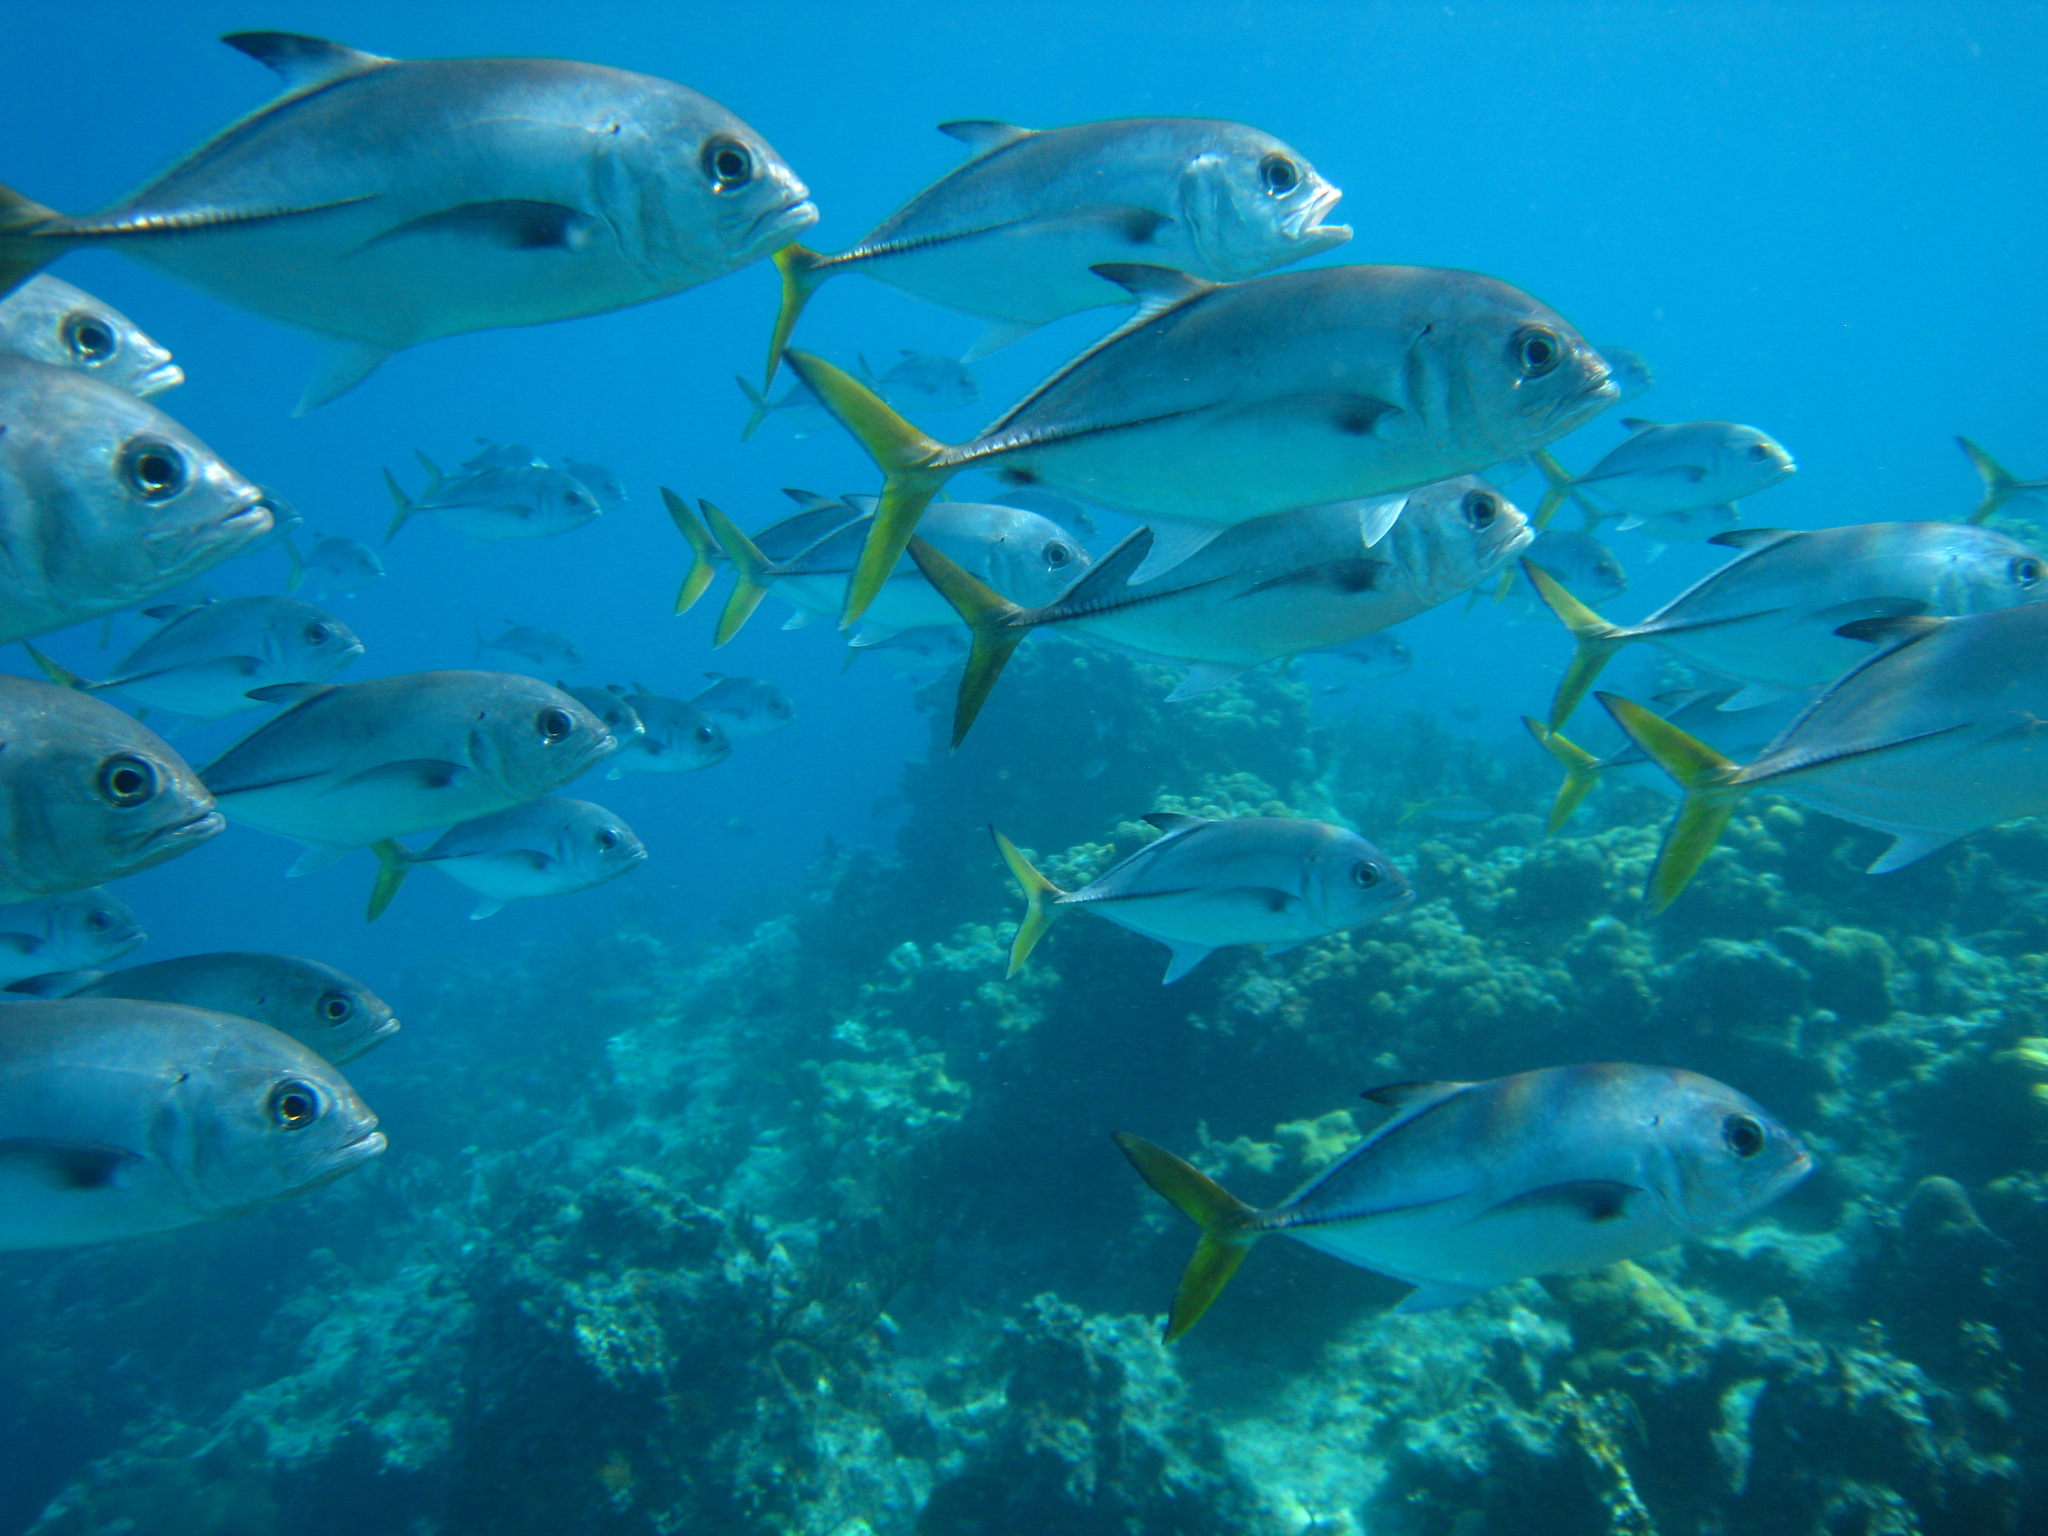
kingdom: Animalia
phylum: Chordata
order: Perciformes
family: Carangidae
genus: Caranx
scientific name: Caranx latus
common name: Horse eye jack
